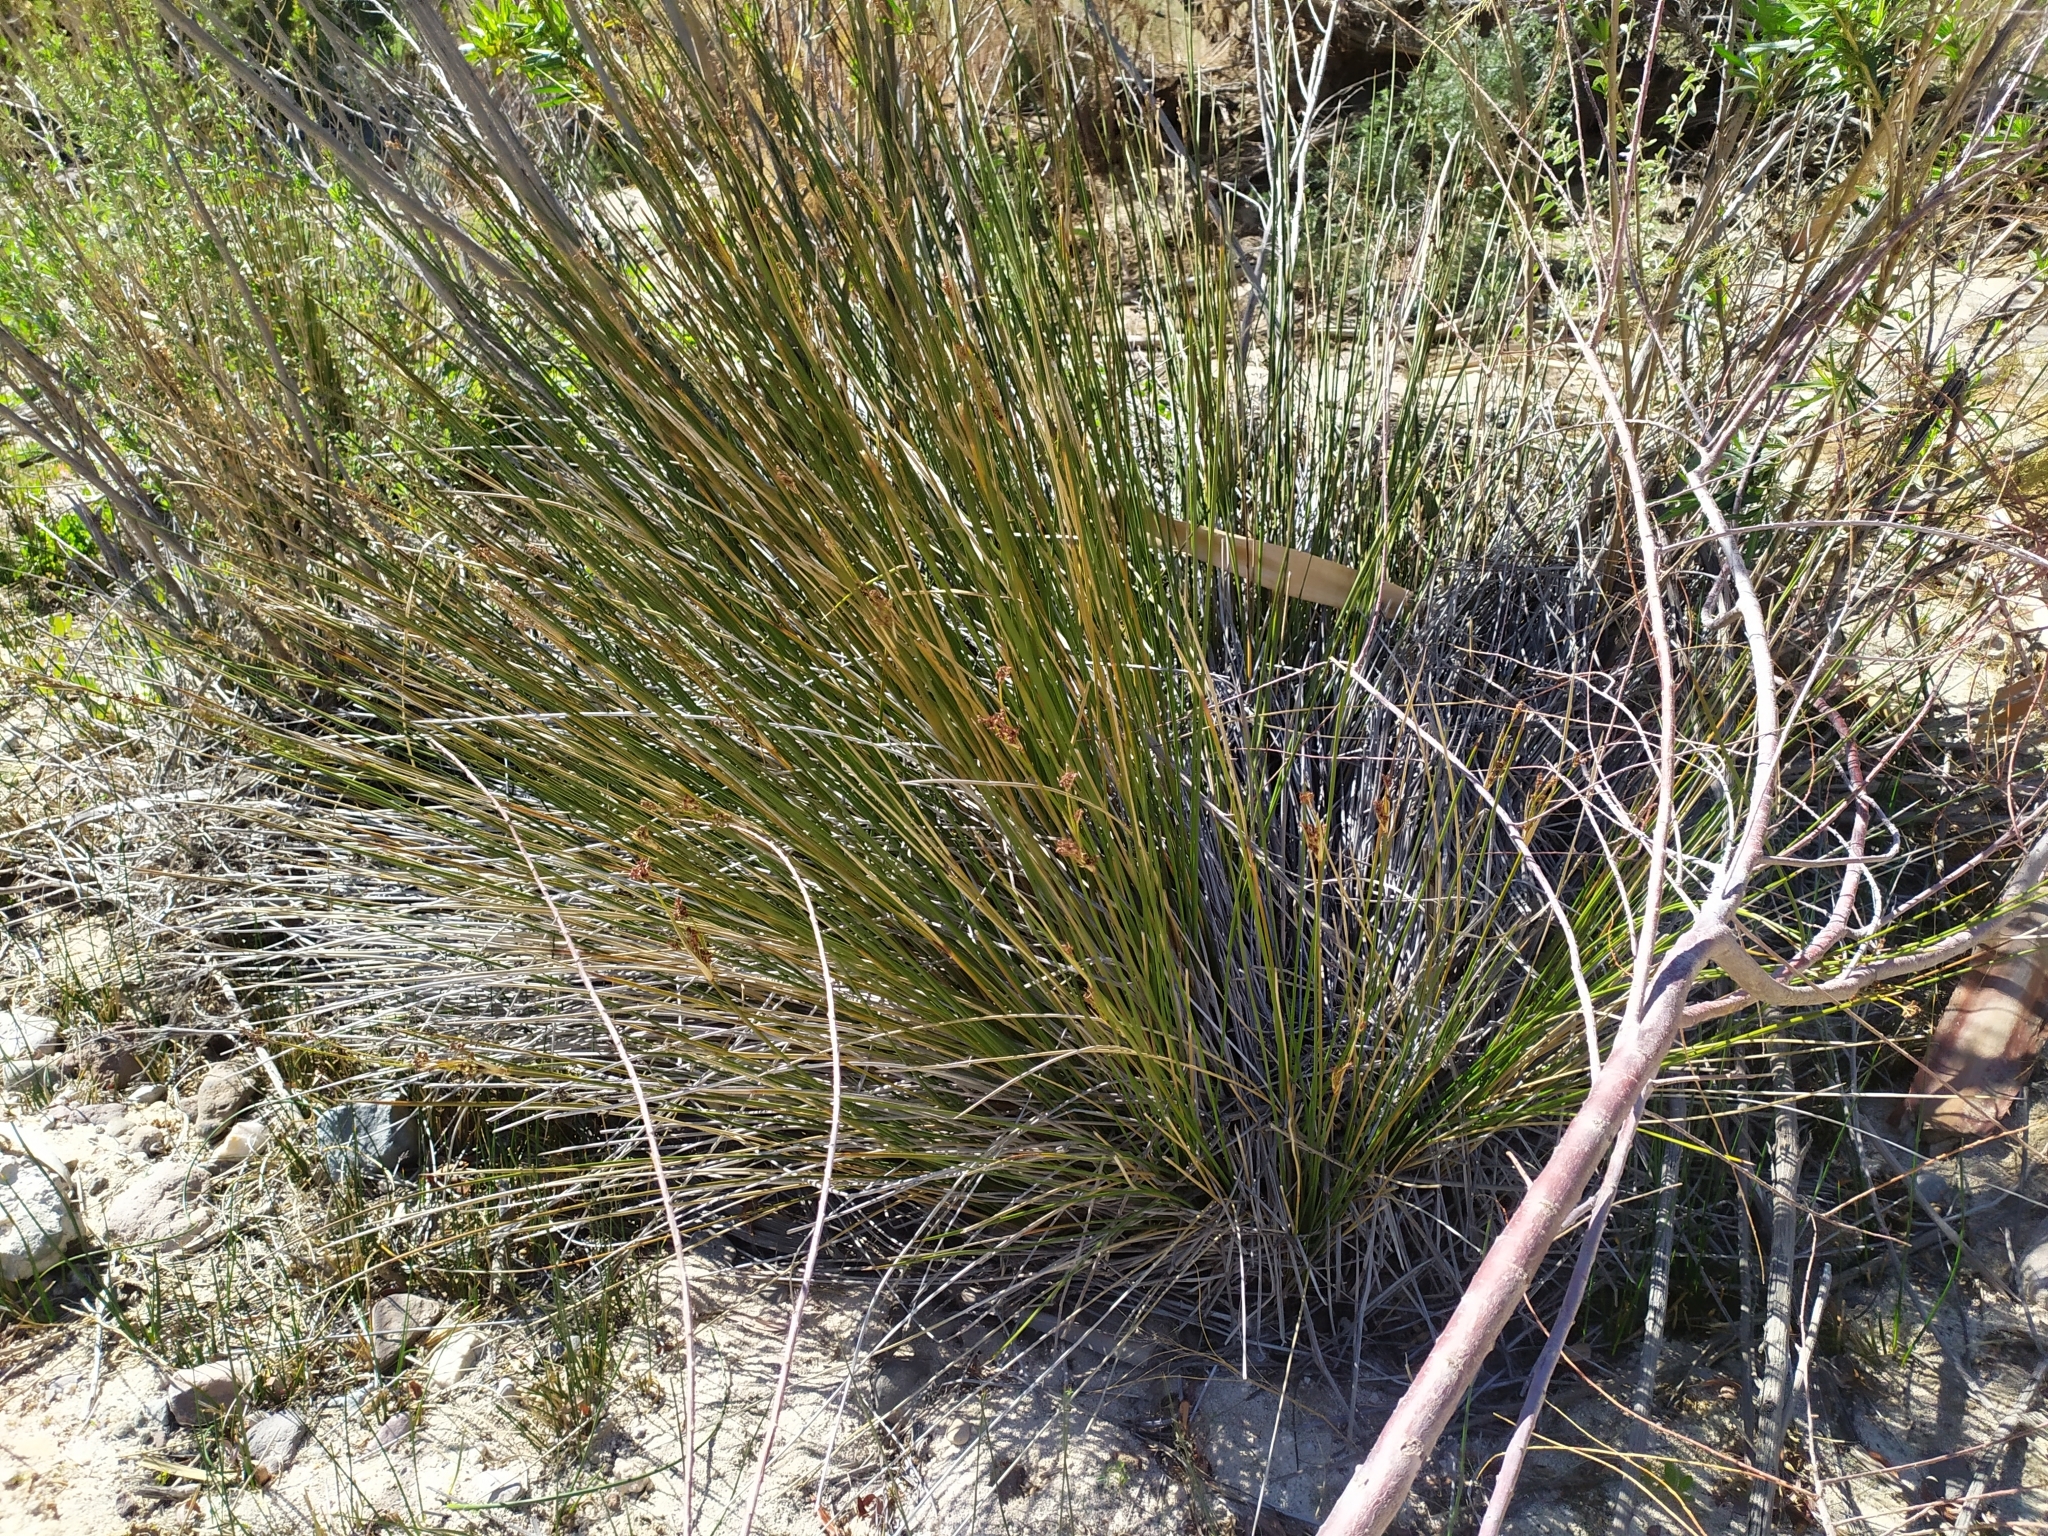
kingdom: Plantae
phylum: Tracheophyta
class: Liliopsida
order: Poales
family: Juncaceae
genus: Juncus
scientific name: Juncus acutus
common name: Sharp rush
